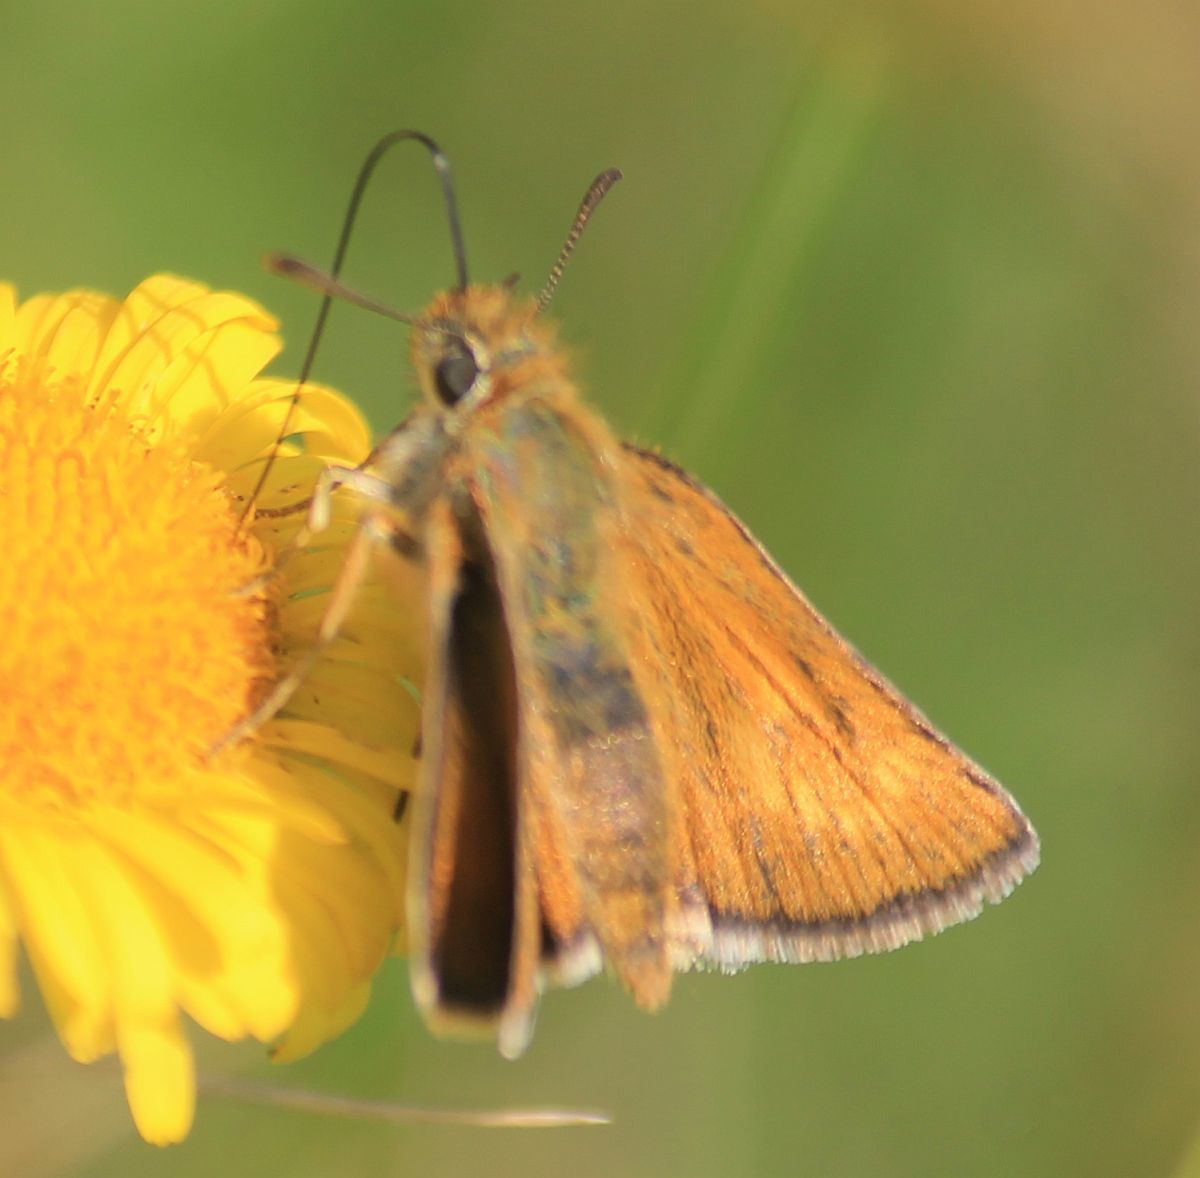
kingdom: Animalia
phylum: Arthropoda
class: Insecta
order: Lepidoptera
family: Hesperiidae
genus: Thymelicus
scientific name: Thymelicus acteon
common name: Lulworth skipper
